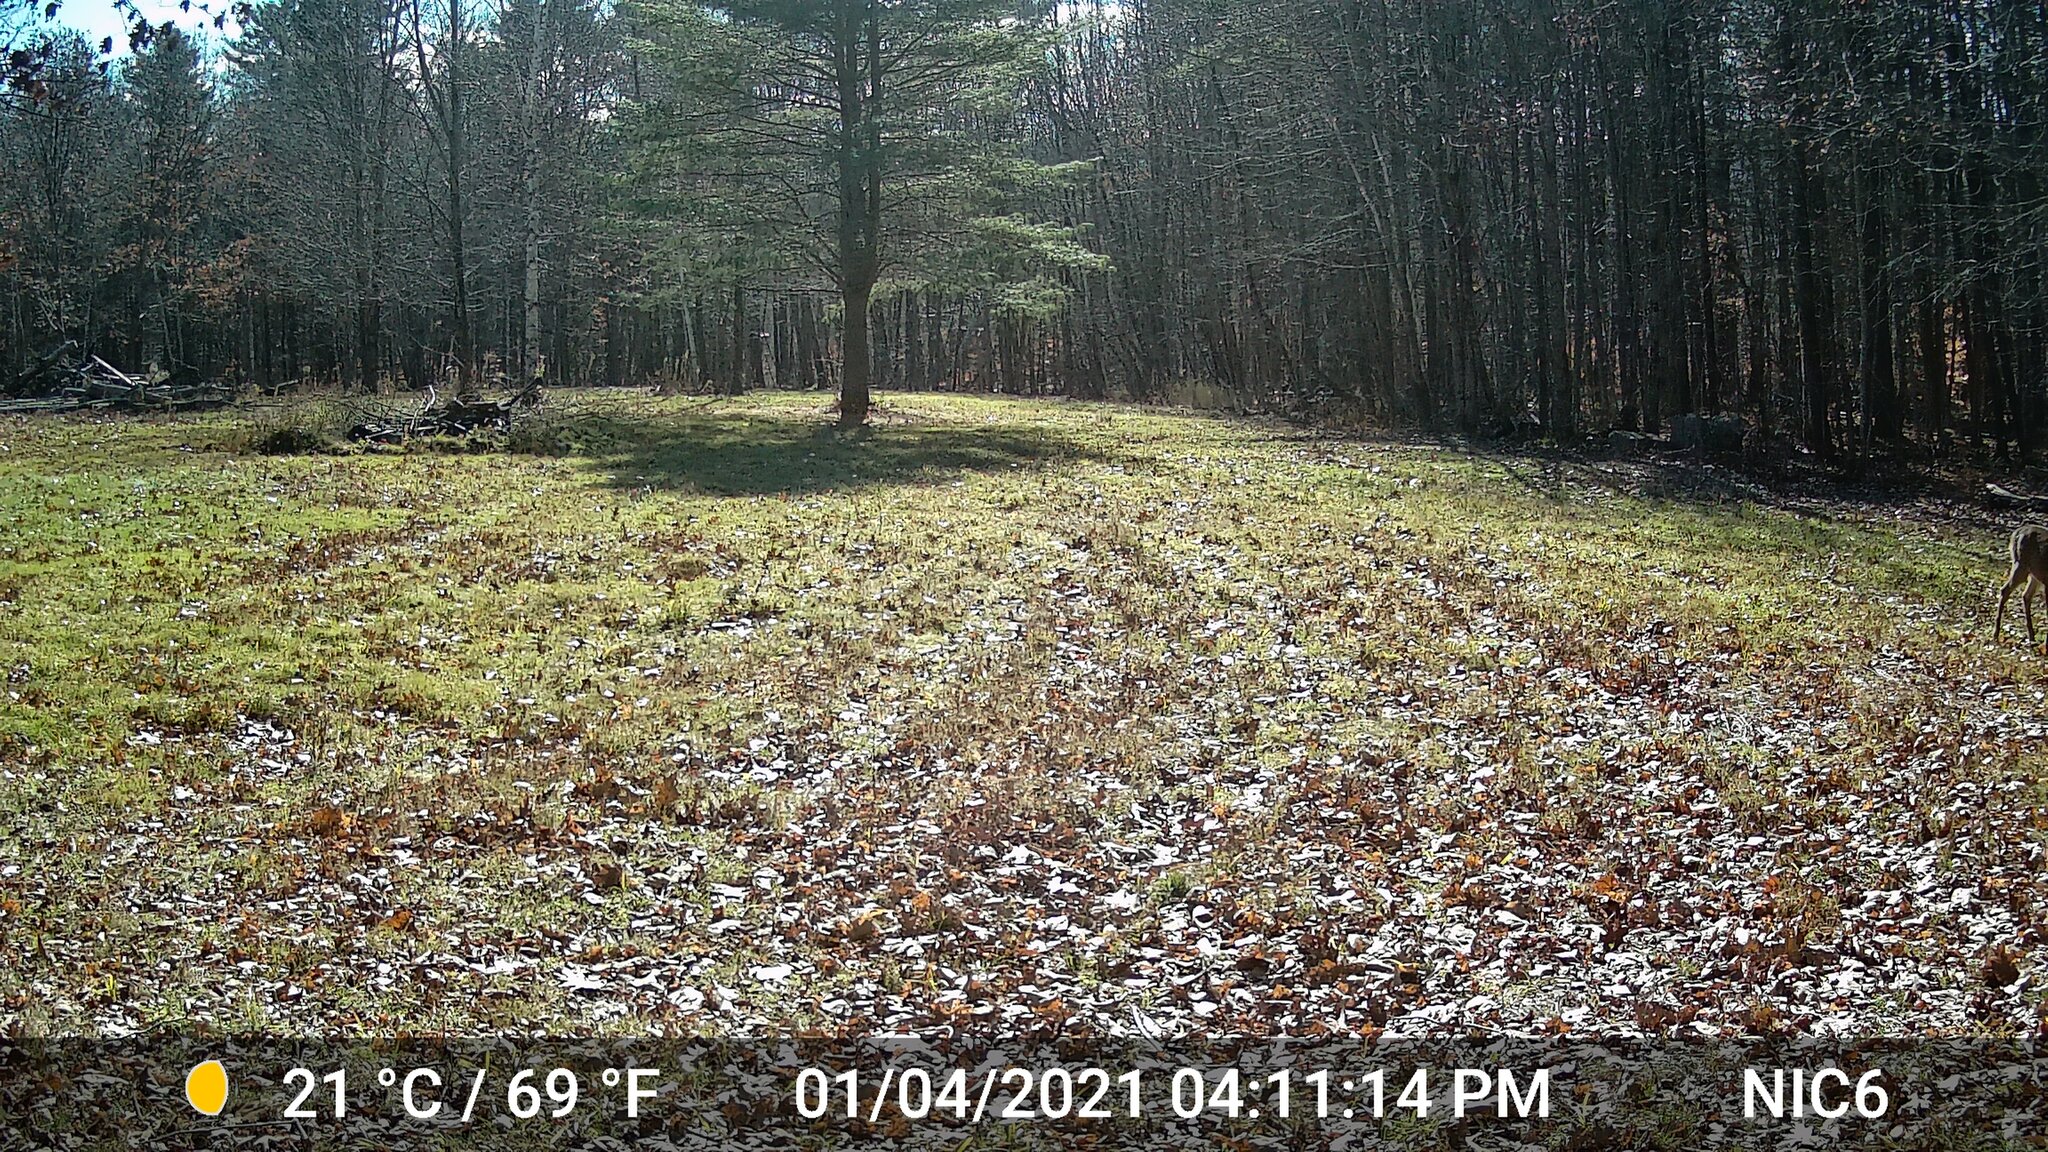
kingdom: Animalia
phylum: Chordata
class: Mammalia
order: Artiodactyla
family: Cervidae
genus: Odocoileus
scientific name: Odocoileus virginianus
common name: White-tailed deer
